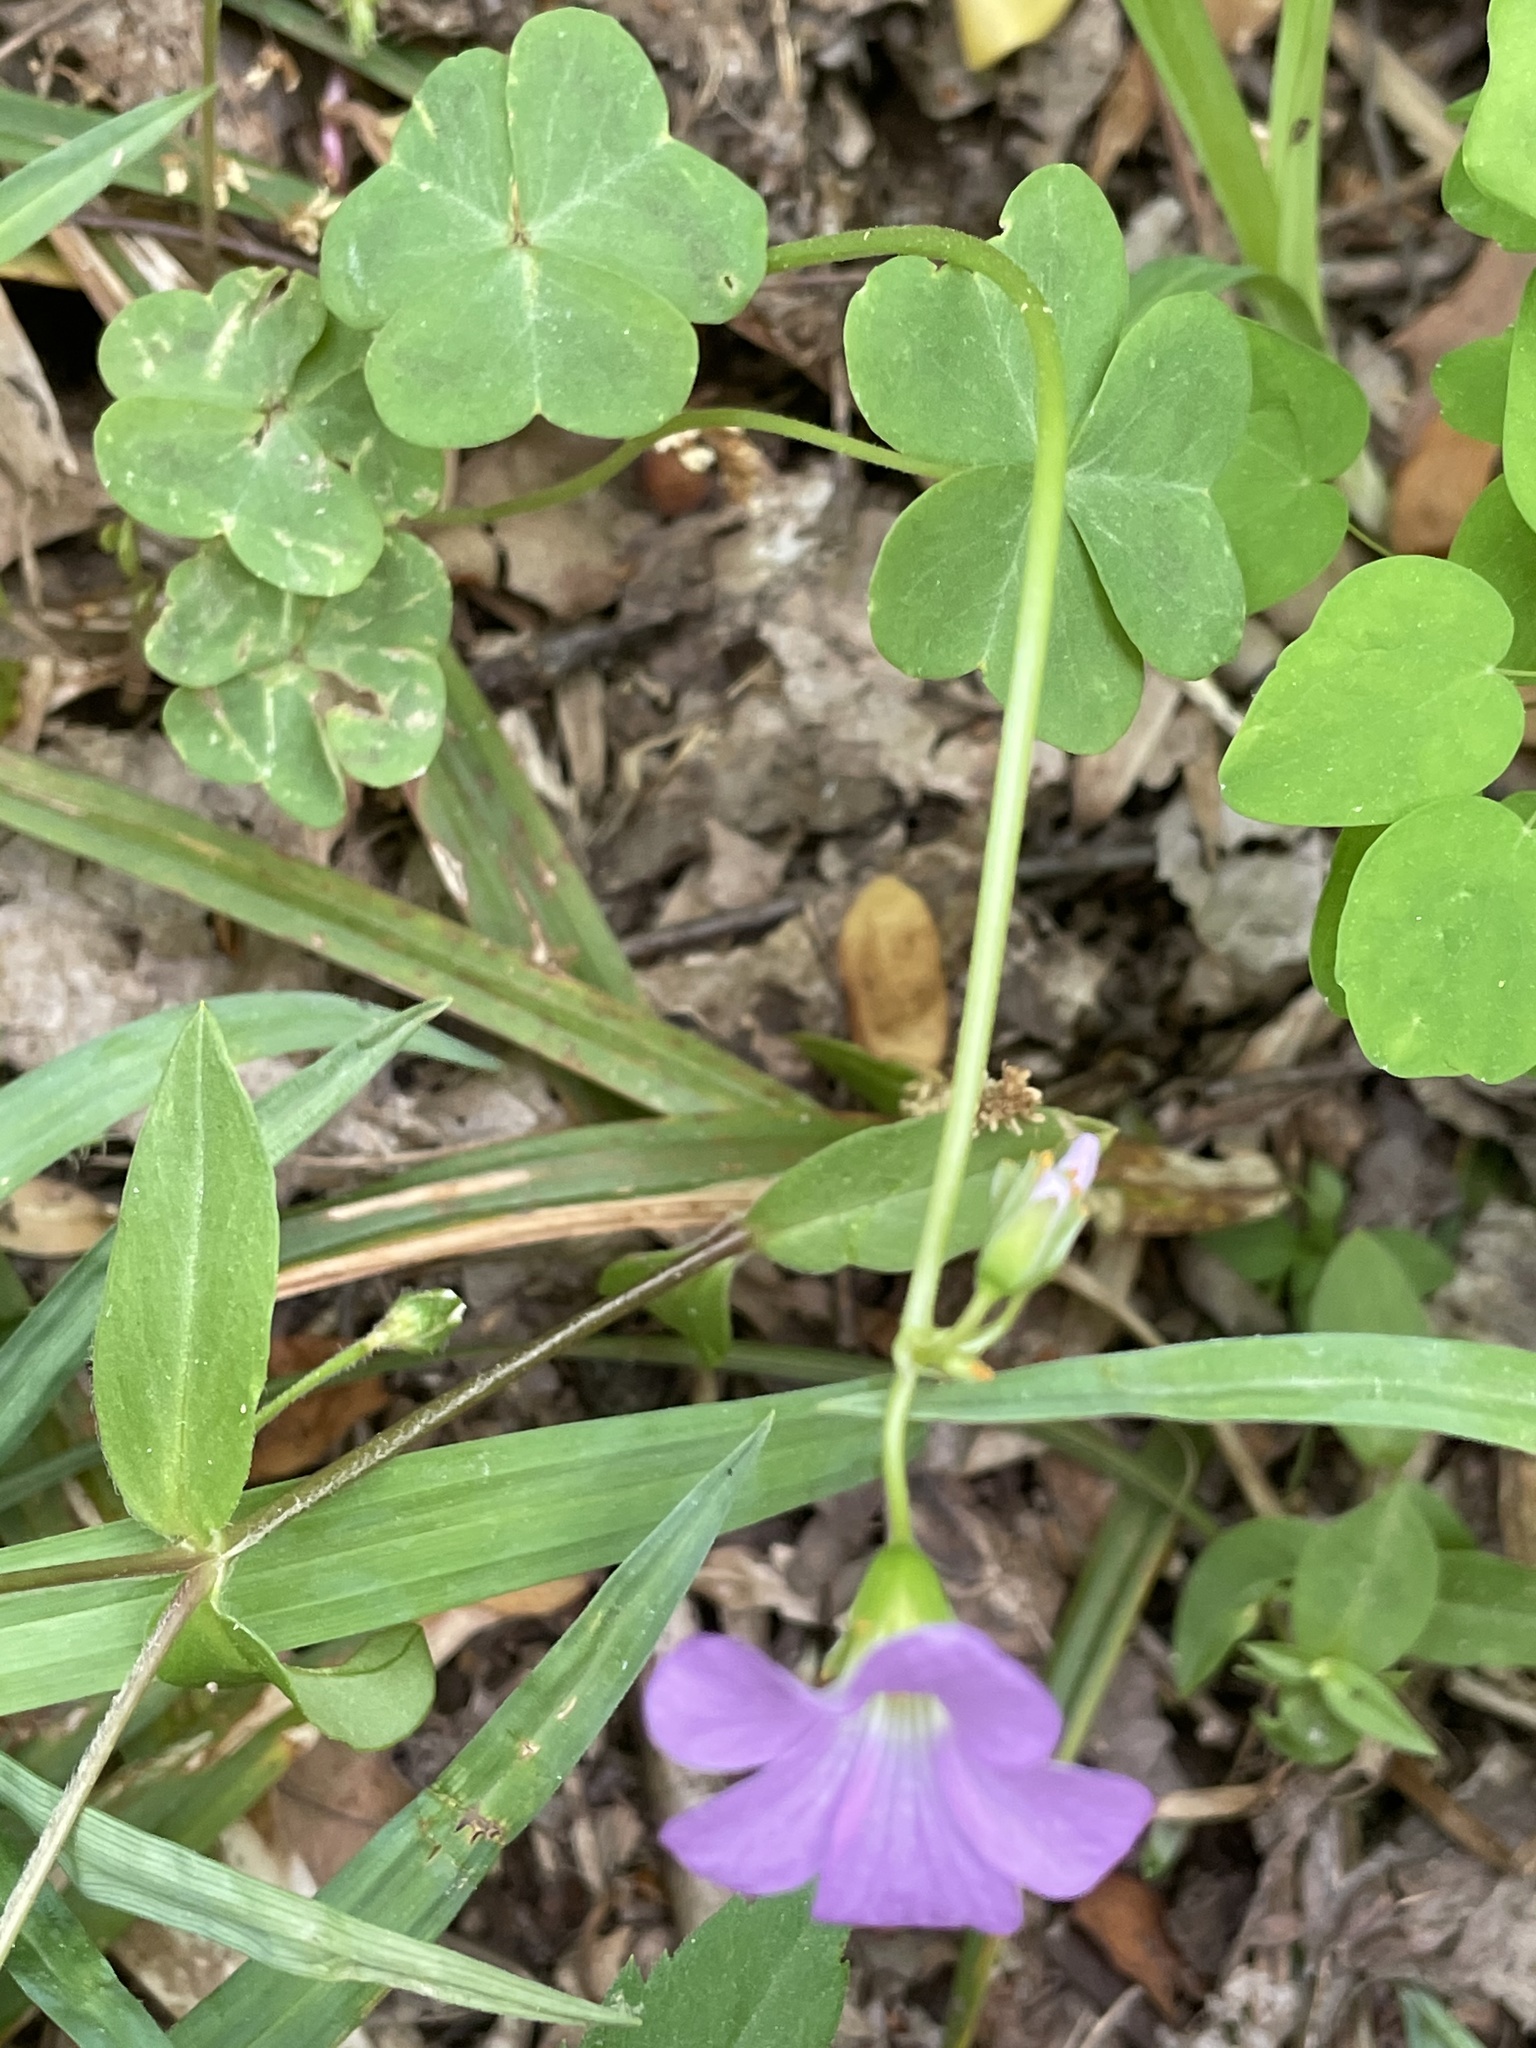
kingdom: Plantae
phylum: Tracheophyta
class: Magnoliopsida
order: Oxalidales
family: Oxalidaceae
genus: Oxalis
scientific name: Oxalis violacea
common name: Violet wood-sorrel
